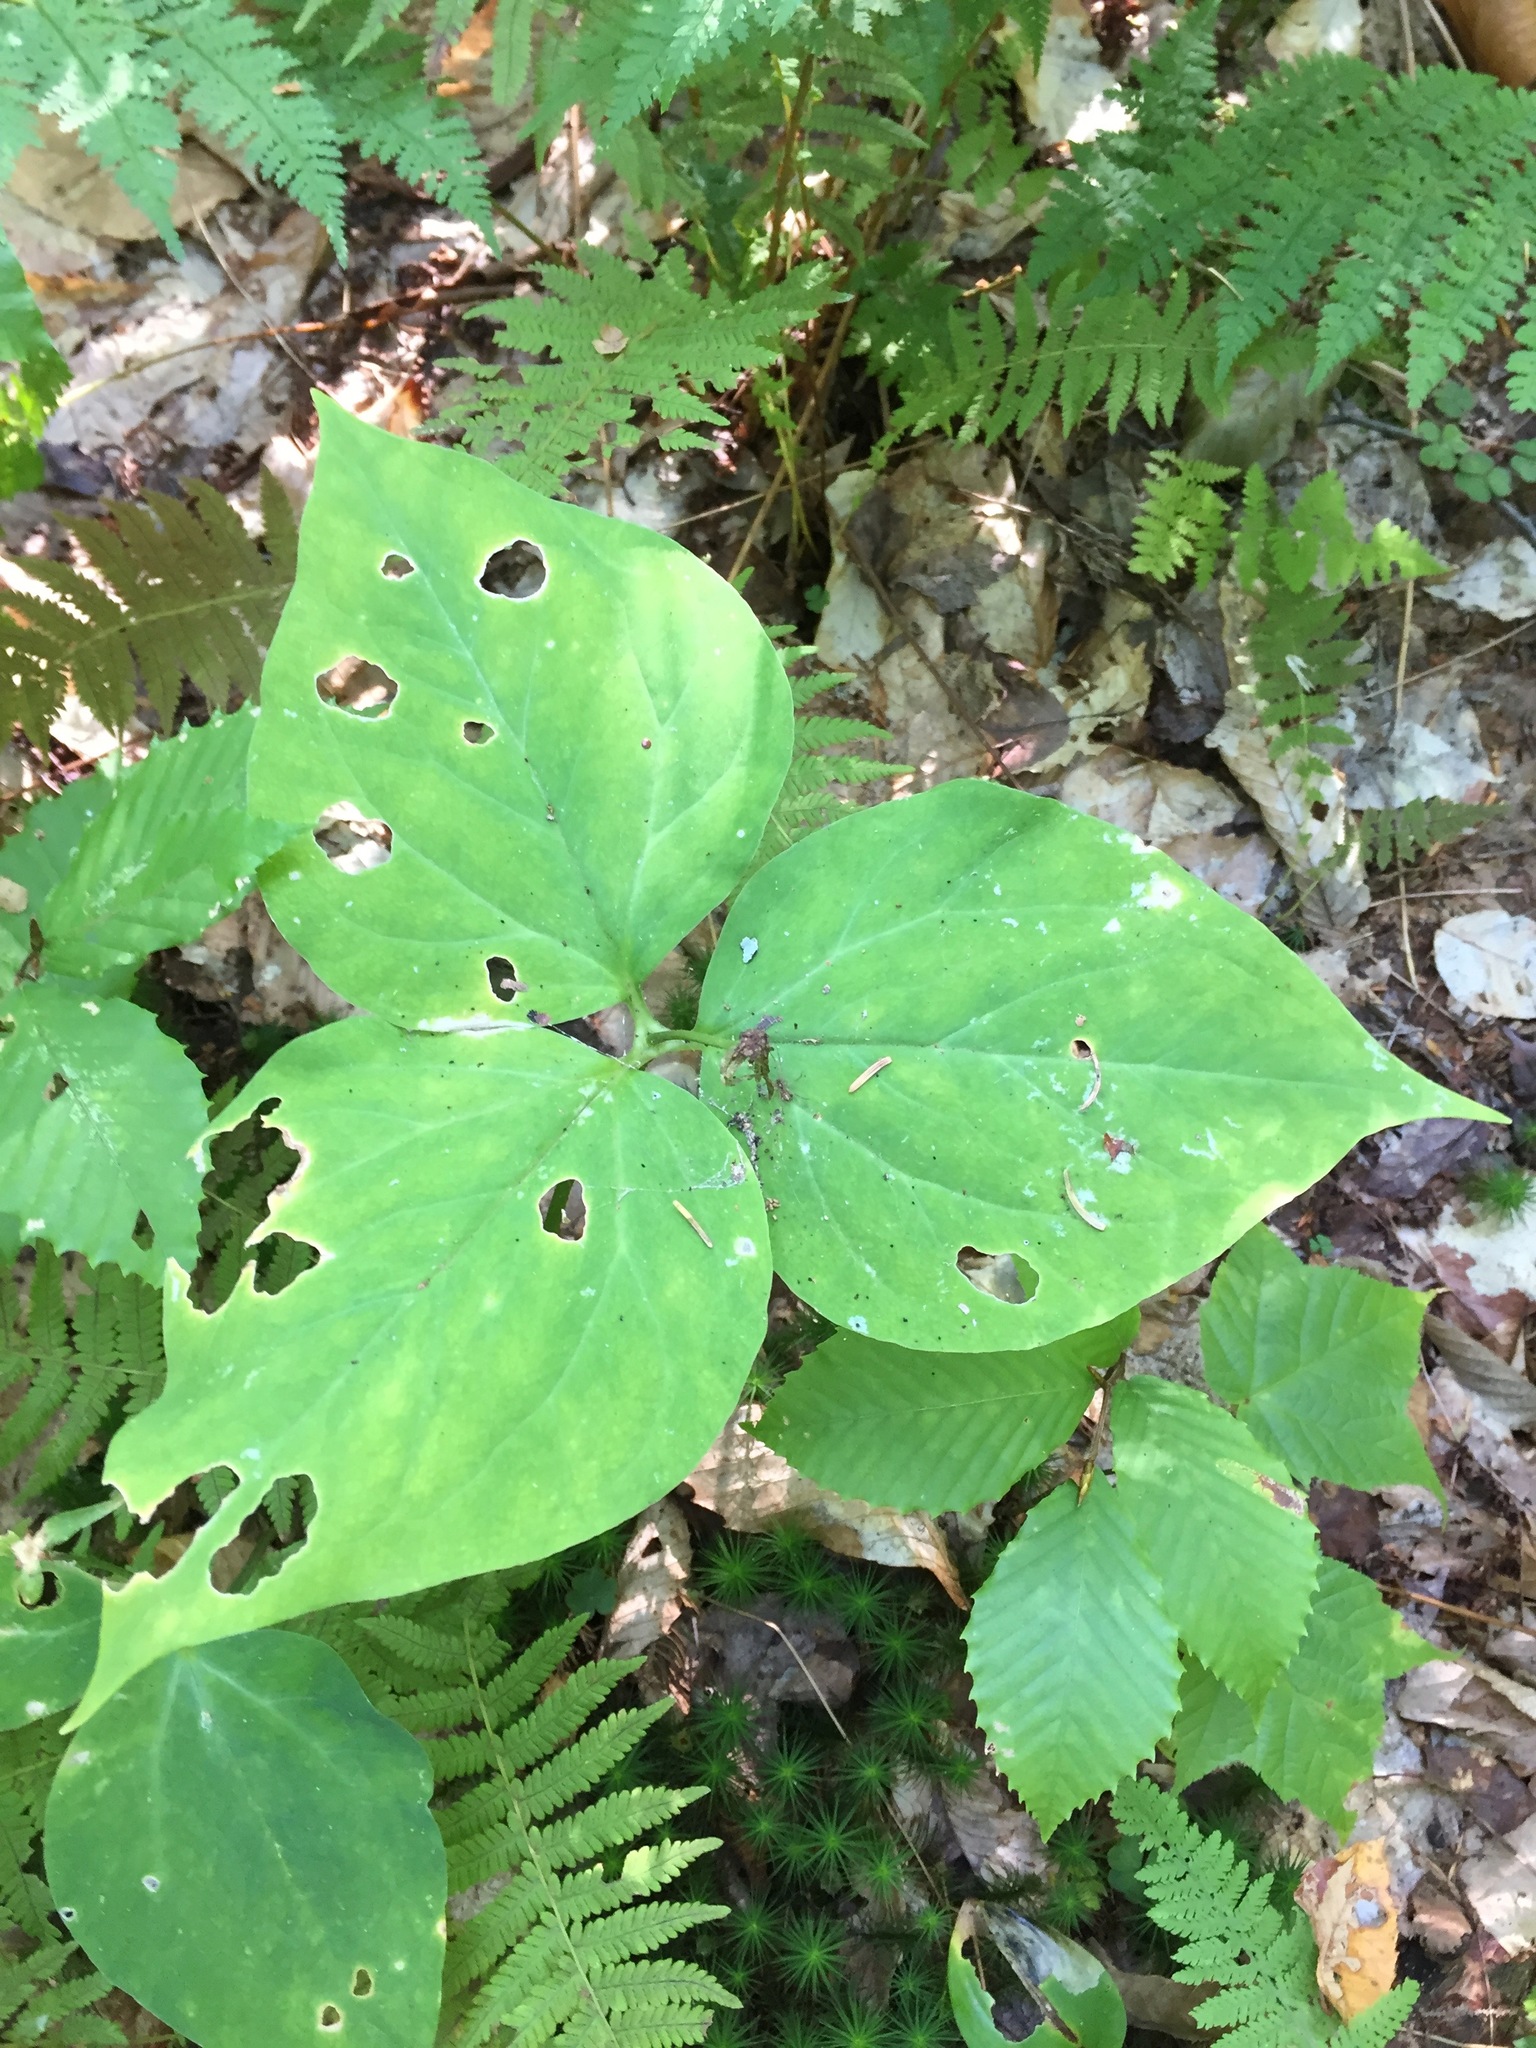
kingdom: Plantae
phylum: Tracheophyta
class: Liliopsida
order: Liliales
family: Melanthiaceae
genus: Trillium
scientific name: Trillium undulatum
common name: Paint trillium
